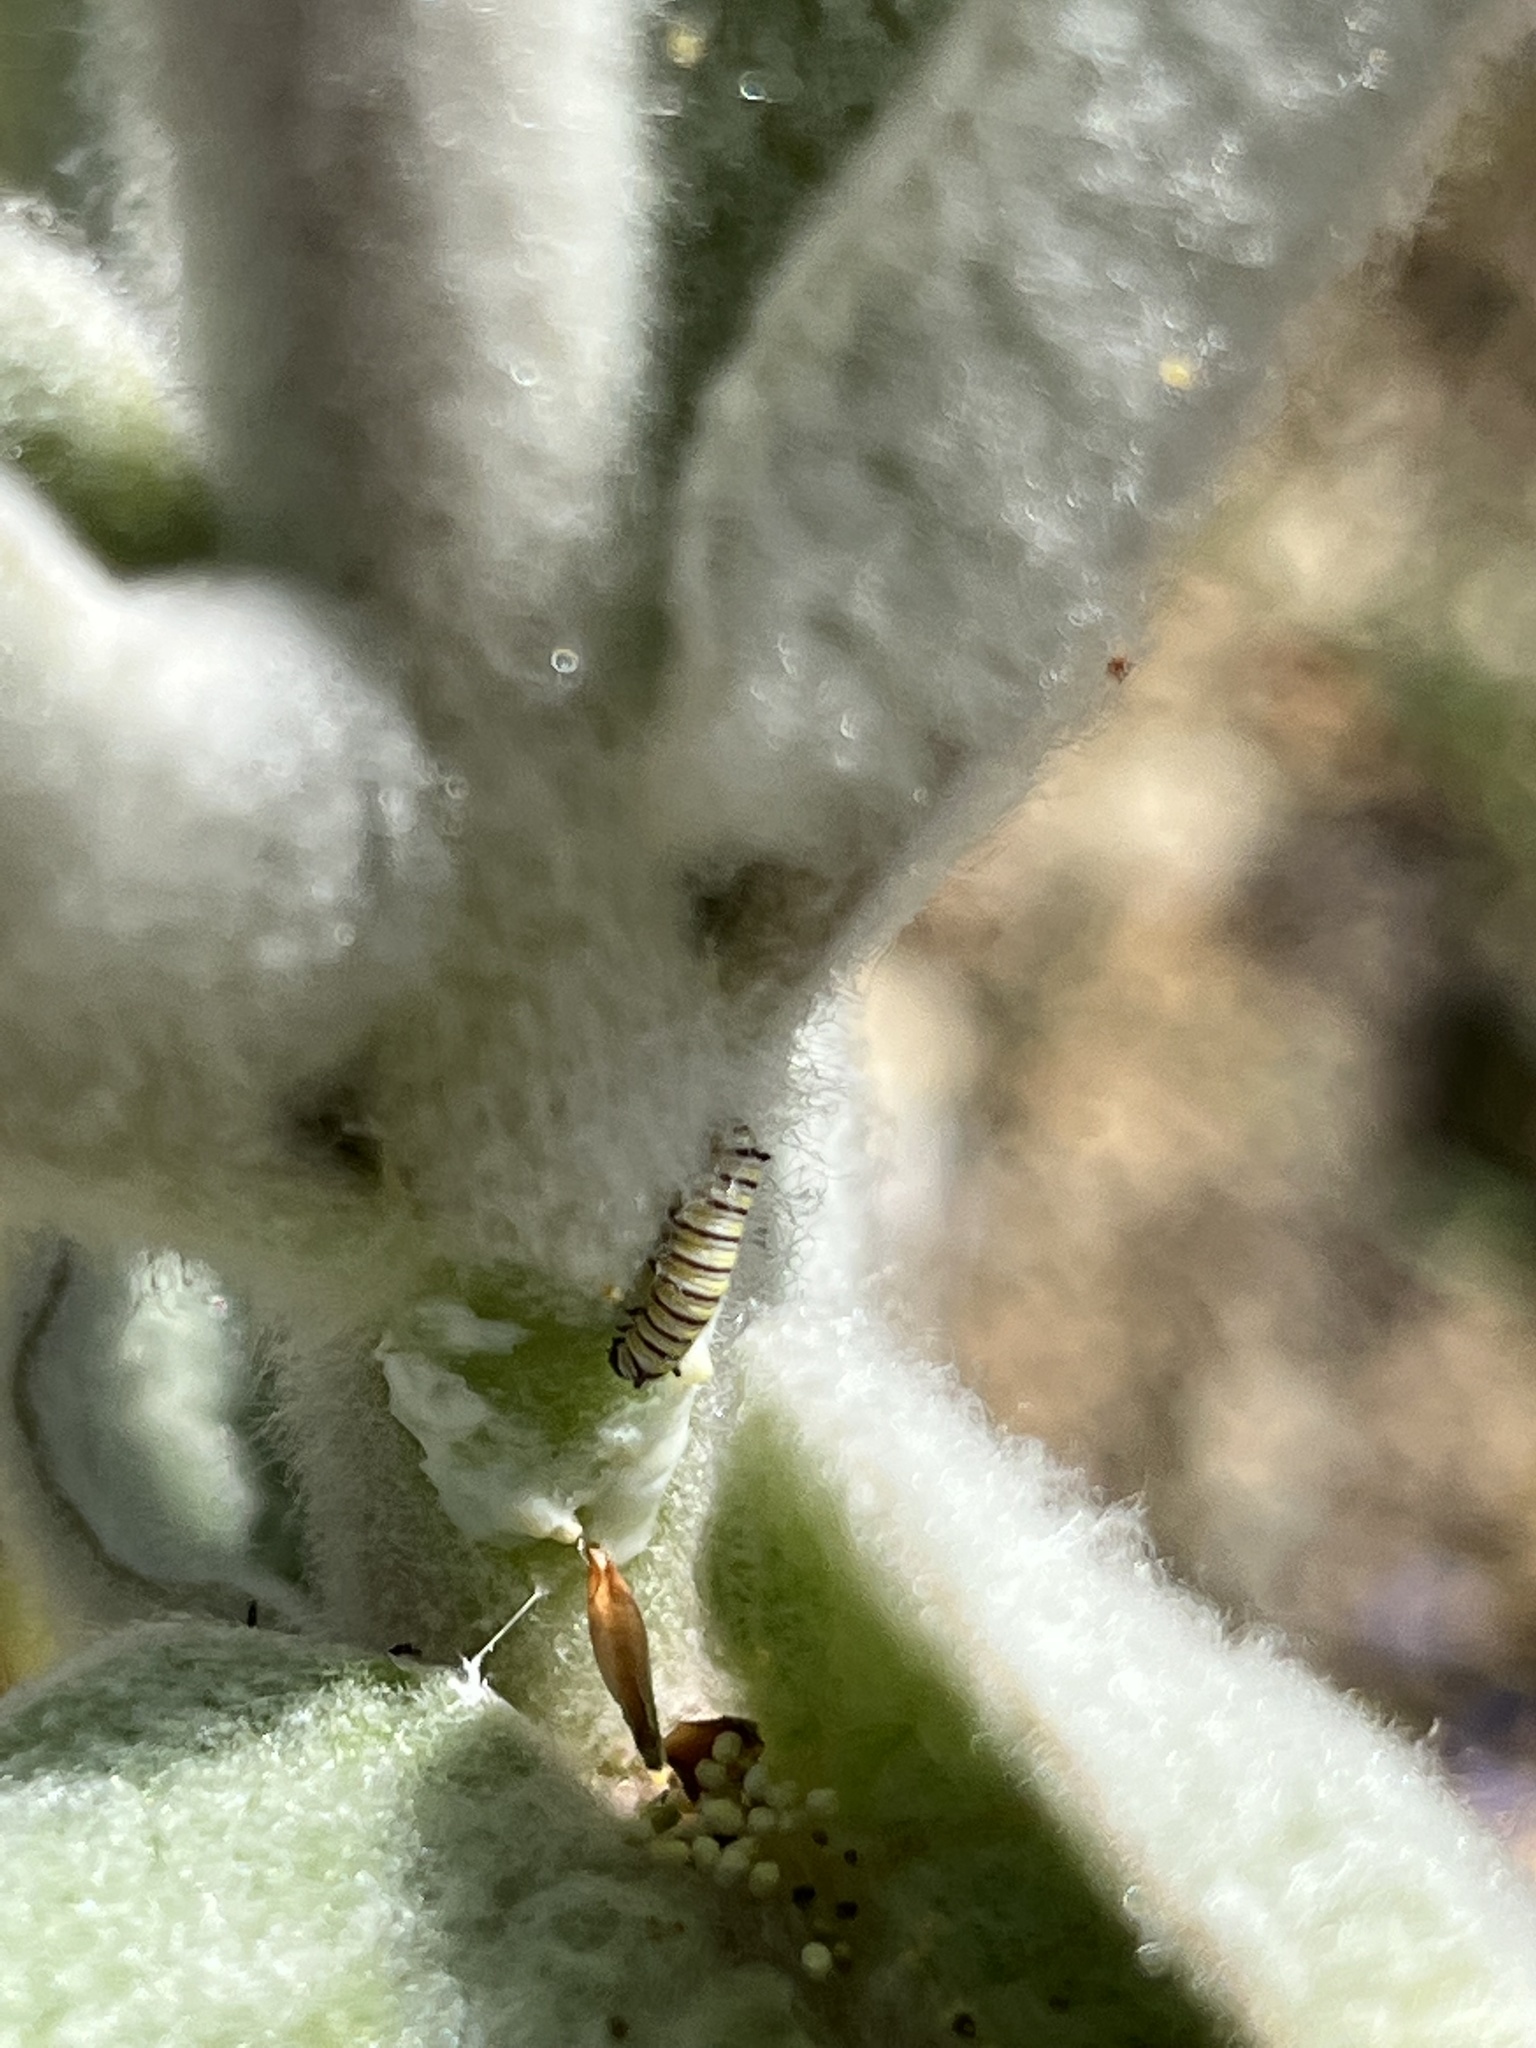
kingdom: Animalia
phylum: Arthropoda
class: Insecta
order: Lepidoptera
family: Nymphalidae
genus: Danaus
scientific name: Danaus plexippus
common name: Monarch
